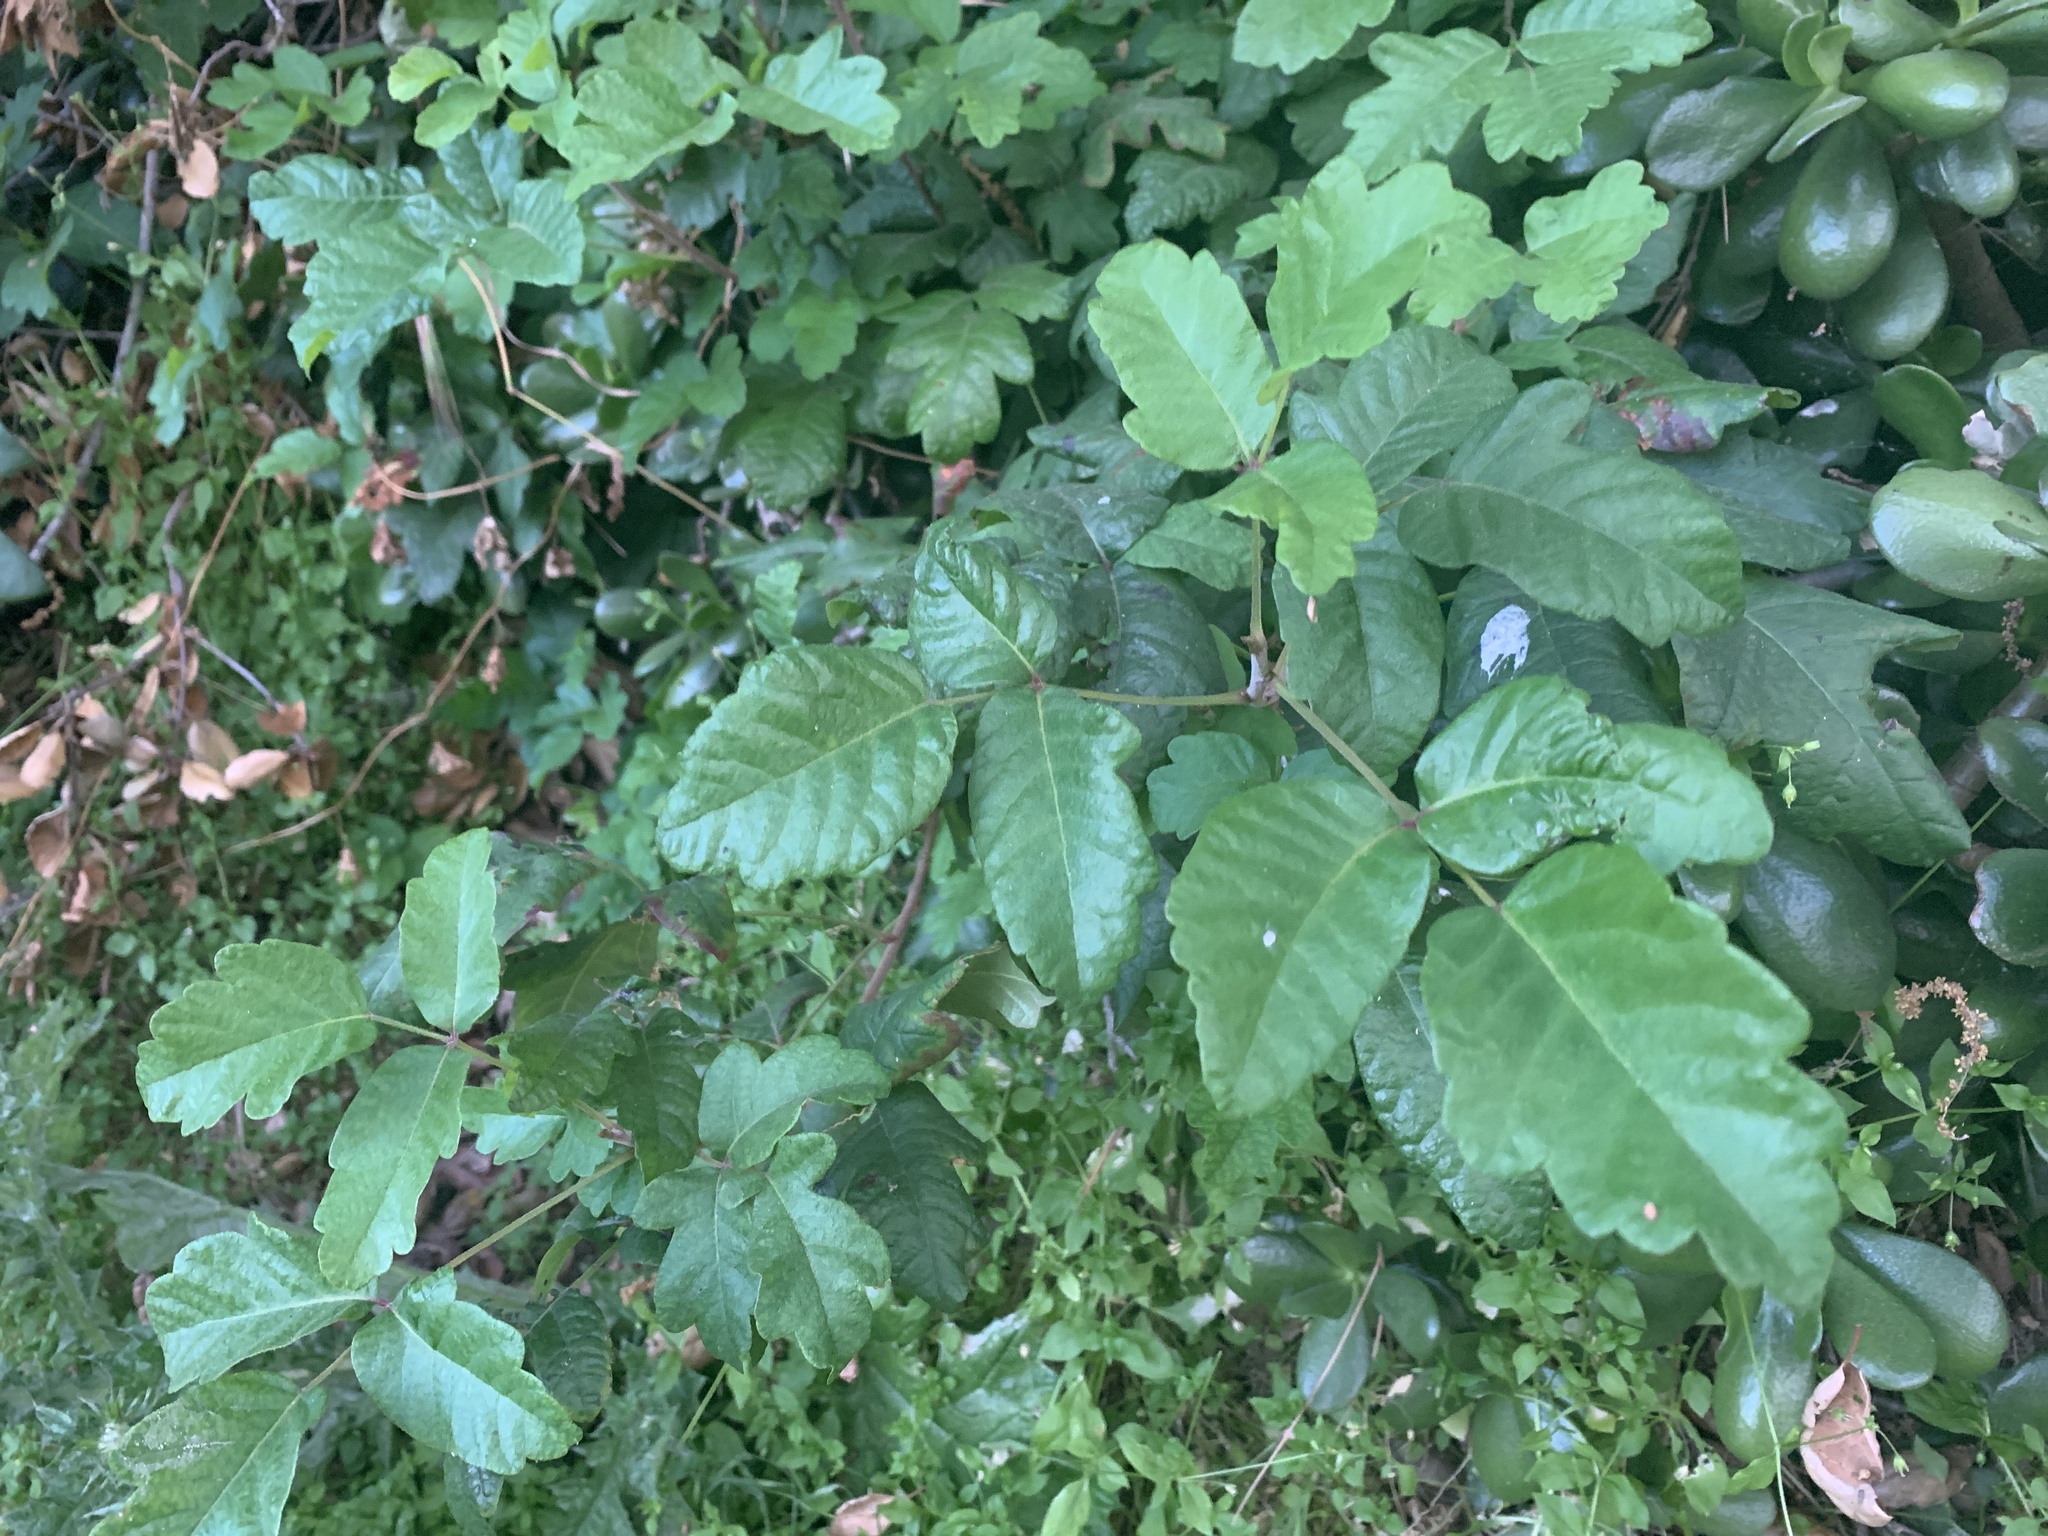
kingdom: Plantae
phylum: Tracheophyta
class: Magnoliopsida
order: Sapindales
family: Anacardiaceae
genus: Toxicodendron
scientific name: Toxicodendron diversilobum
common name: Pacific poison-oak
